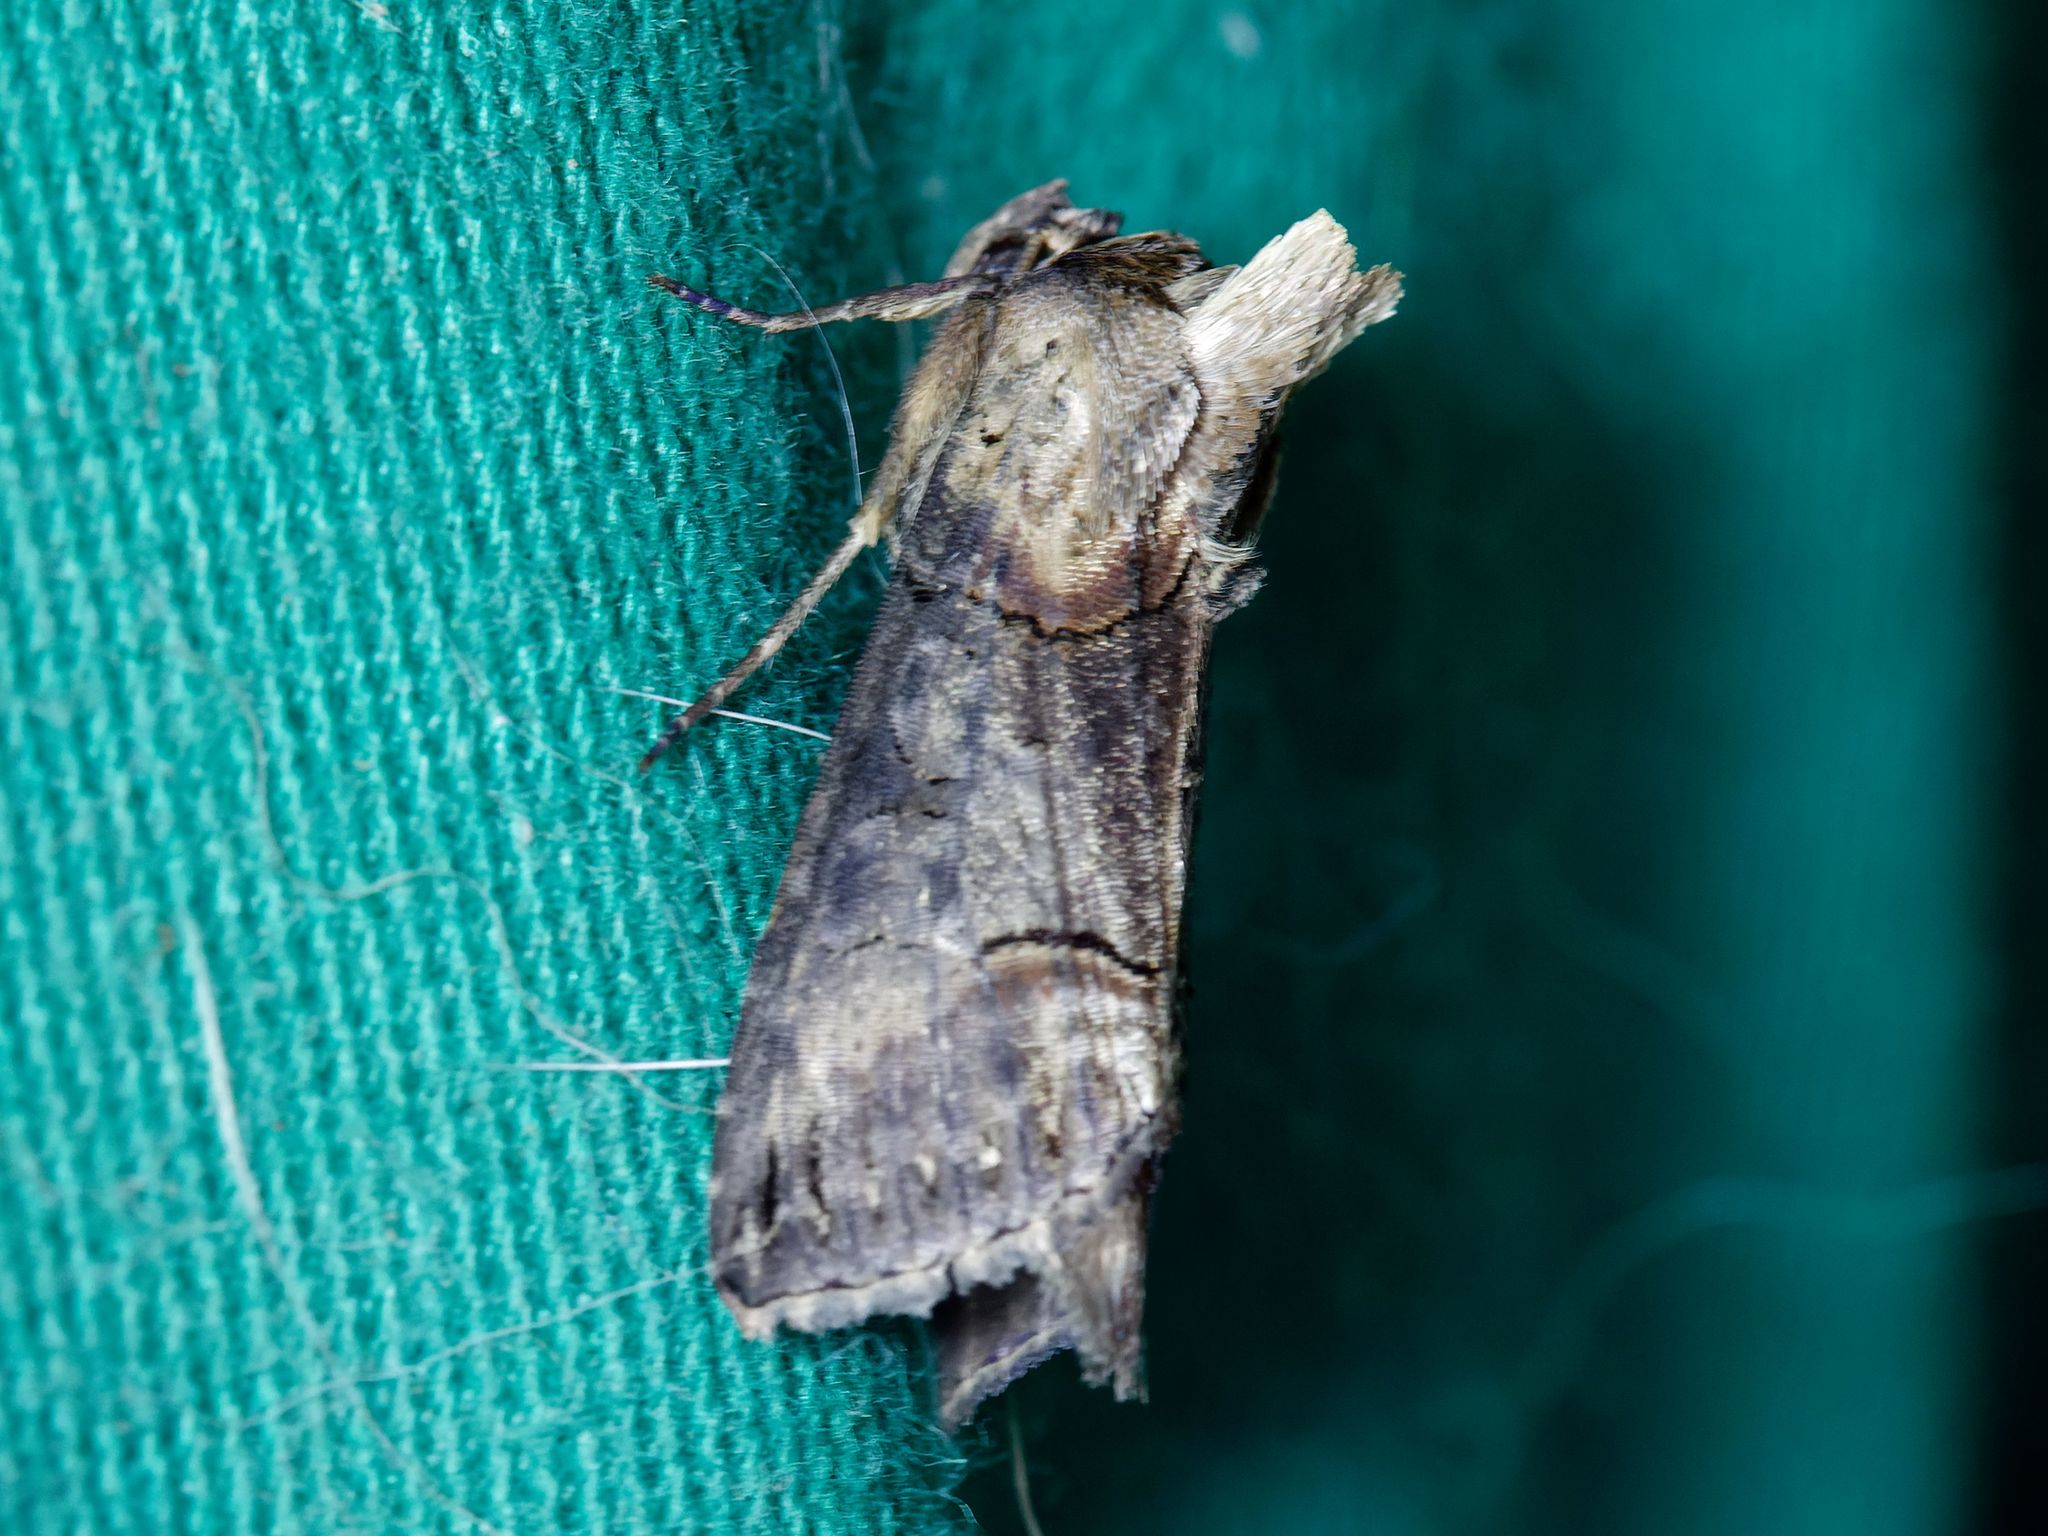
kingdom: Animalia
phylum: Arthropoda
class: Insecta
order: Lepidoptera
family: Noctuidae
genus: Abrostola
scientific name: Abrostola triplasia
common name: Dark spectacle
